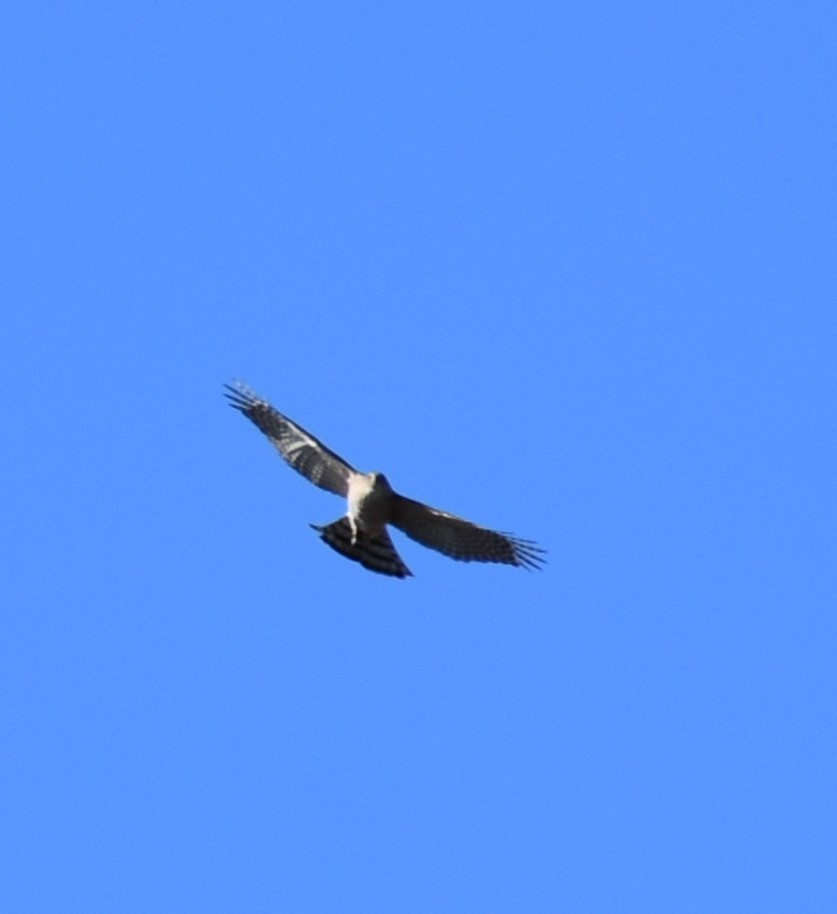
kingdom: Animalia
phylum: Chordata
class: Aves
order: Accipitriformes
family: Accipitridae
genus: Accipiter
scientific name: Accipiter cooperii
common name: Cooper's hawk
